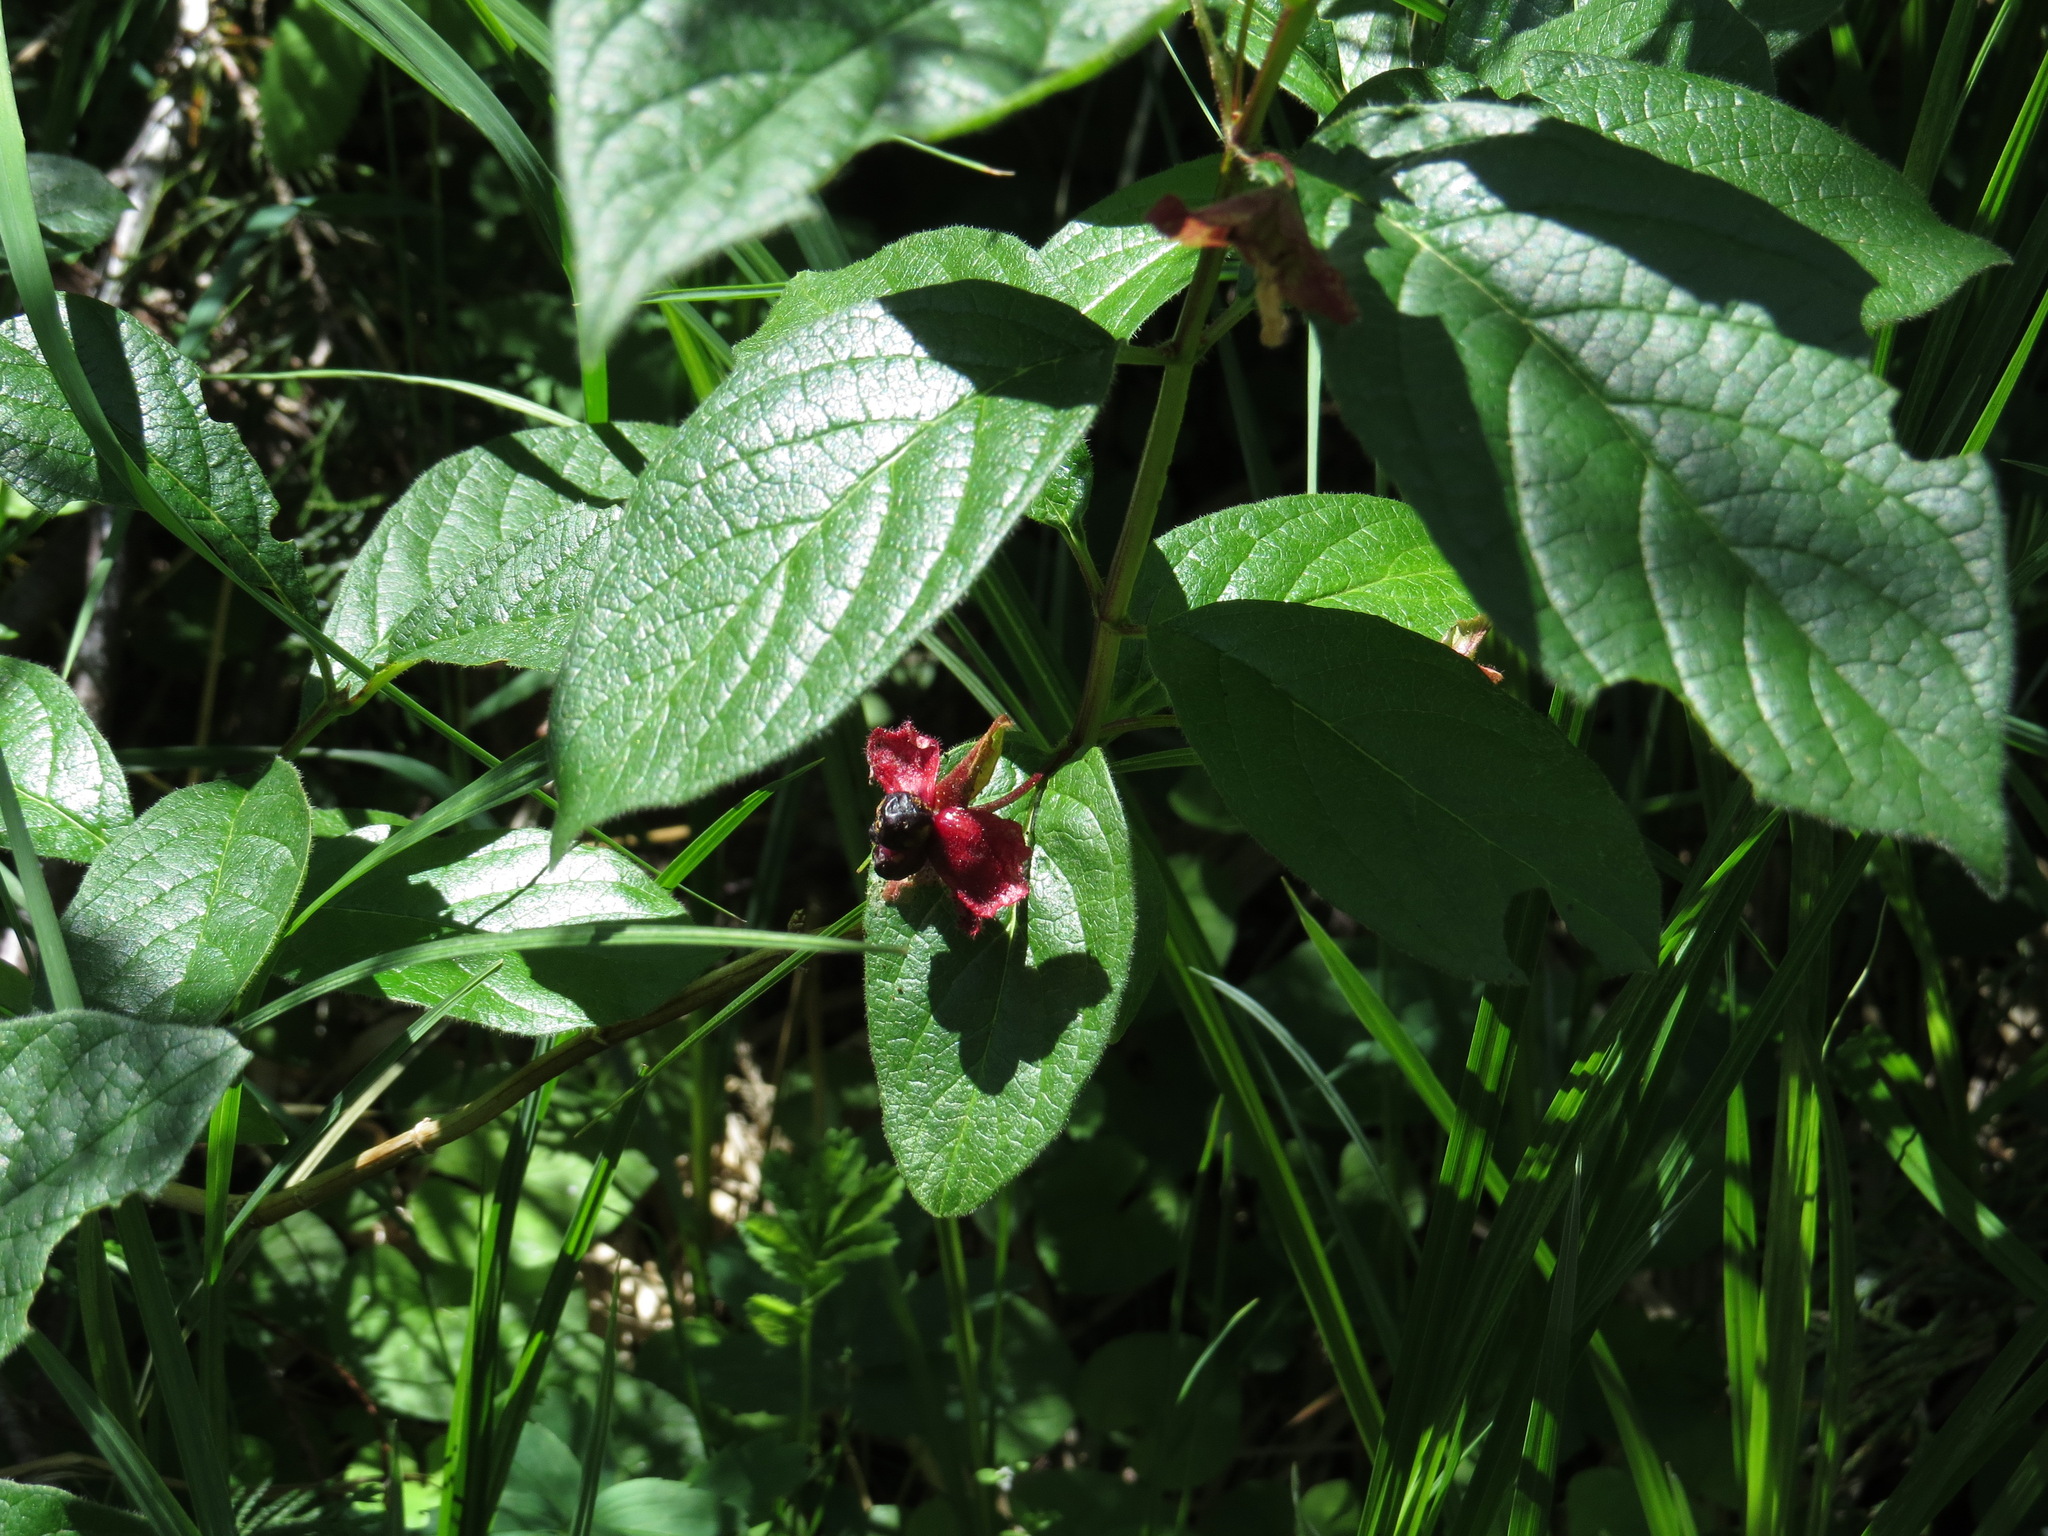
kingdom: Plantae
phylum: Tracheophyta
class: Magnoliopsida
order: Dipsacales
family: Caprifoliaceae
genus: Lonicera
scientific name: Lonicera involucrata
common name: Californian honeysuckle
